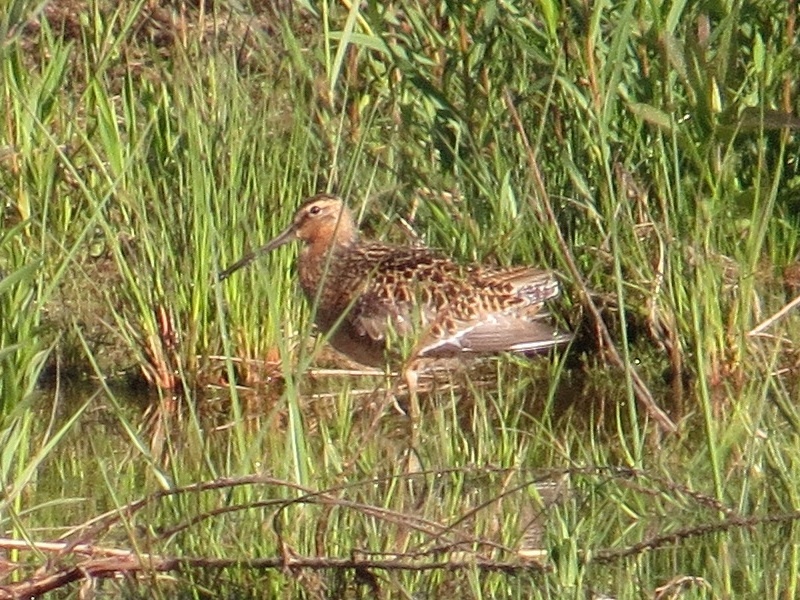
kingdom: Animalia
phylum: Chordata
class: Aves
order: Charadriiformes
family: Scolopacidae
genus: Limnodromus
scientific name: Limnodromus griseus
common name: Short-billed dowitcher
